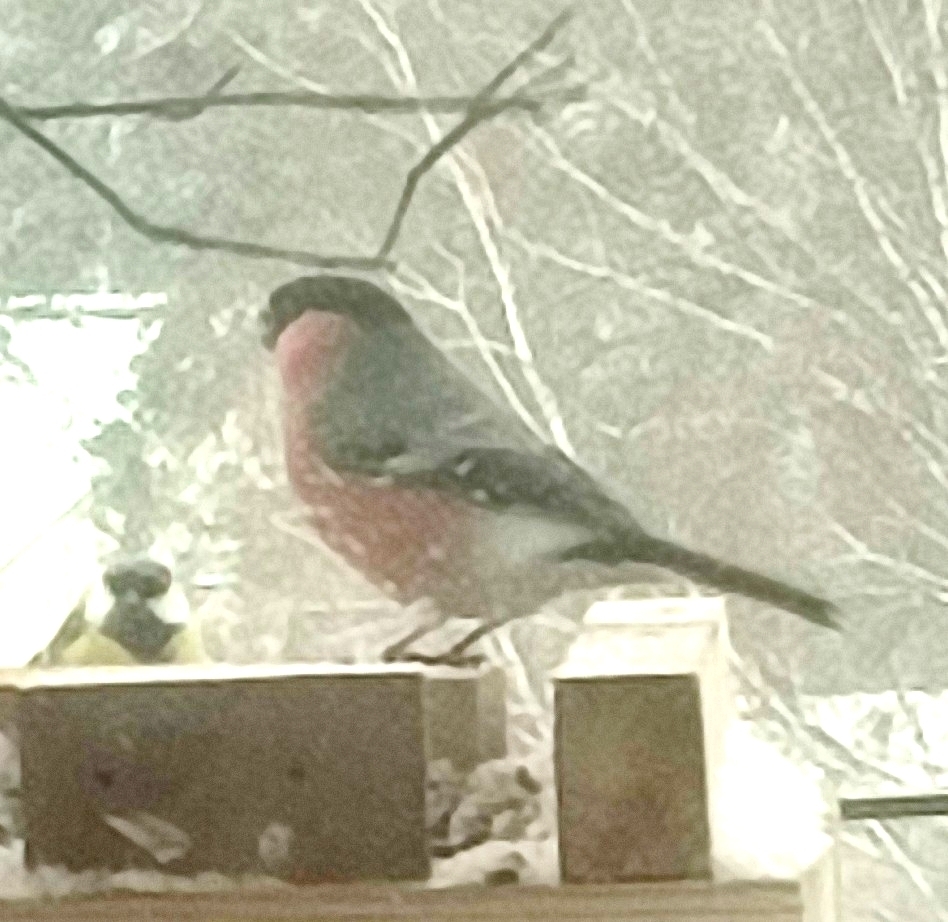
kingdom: Animalia
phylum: Chordata
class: Aves
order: Passeriformes
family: Fringillidae
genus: Pyrrhula
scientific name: Pyrrhula pyrrhula
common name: Eurasian bullfinch
